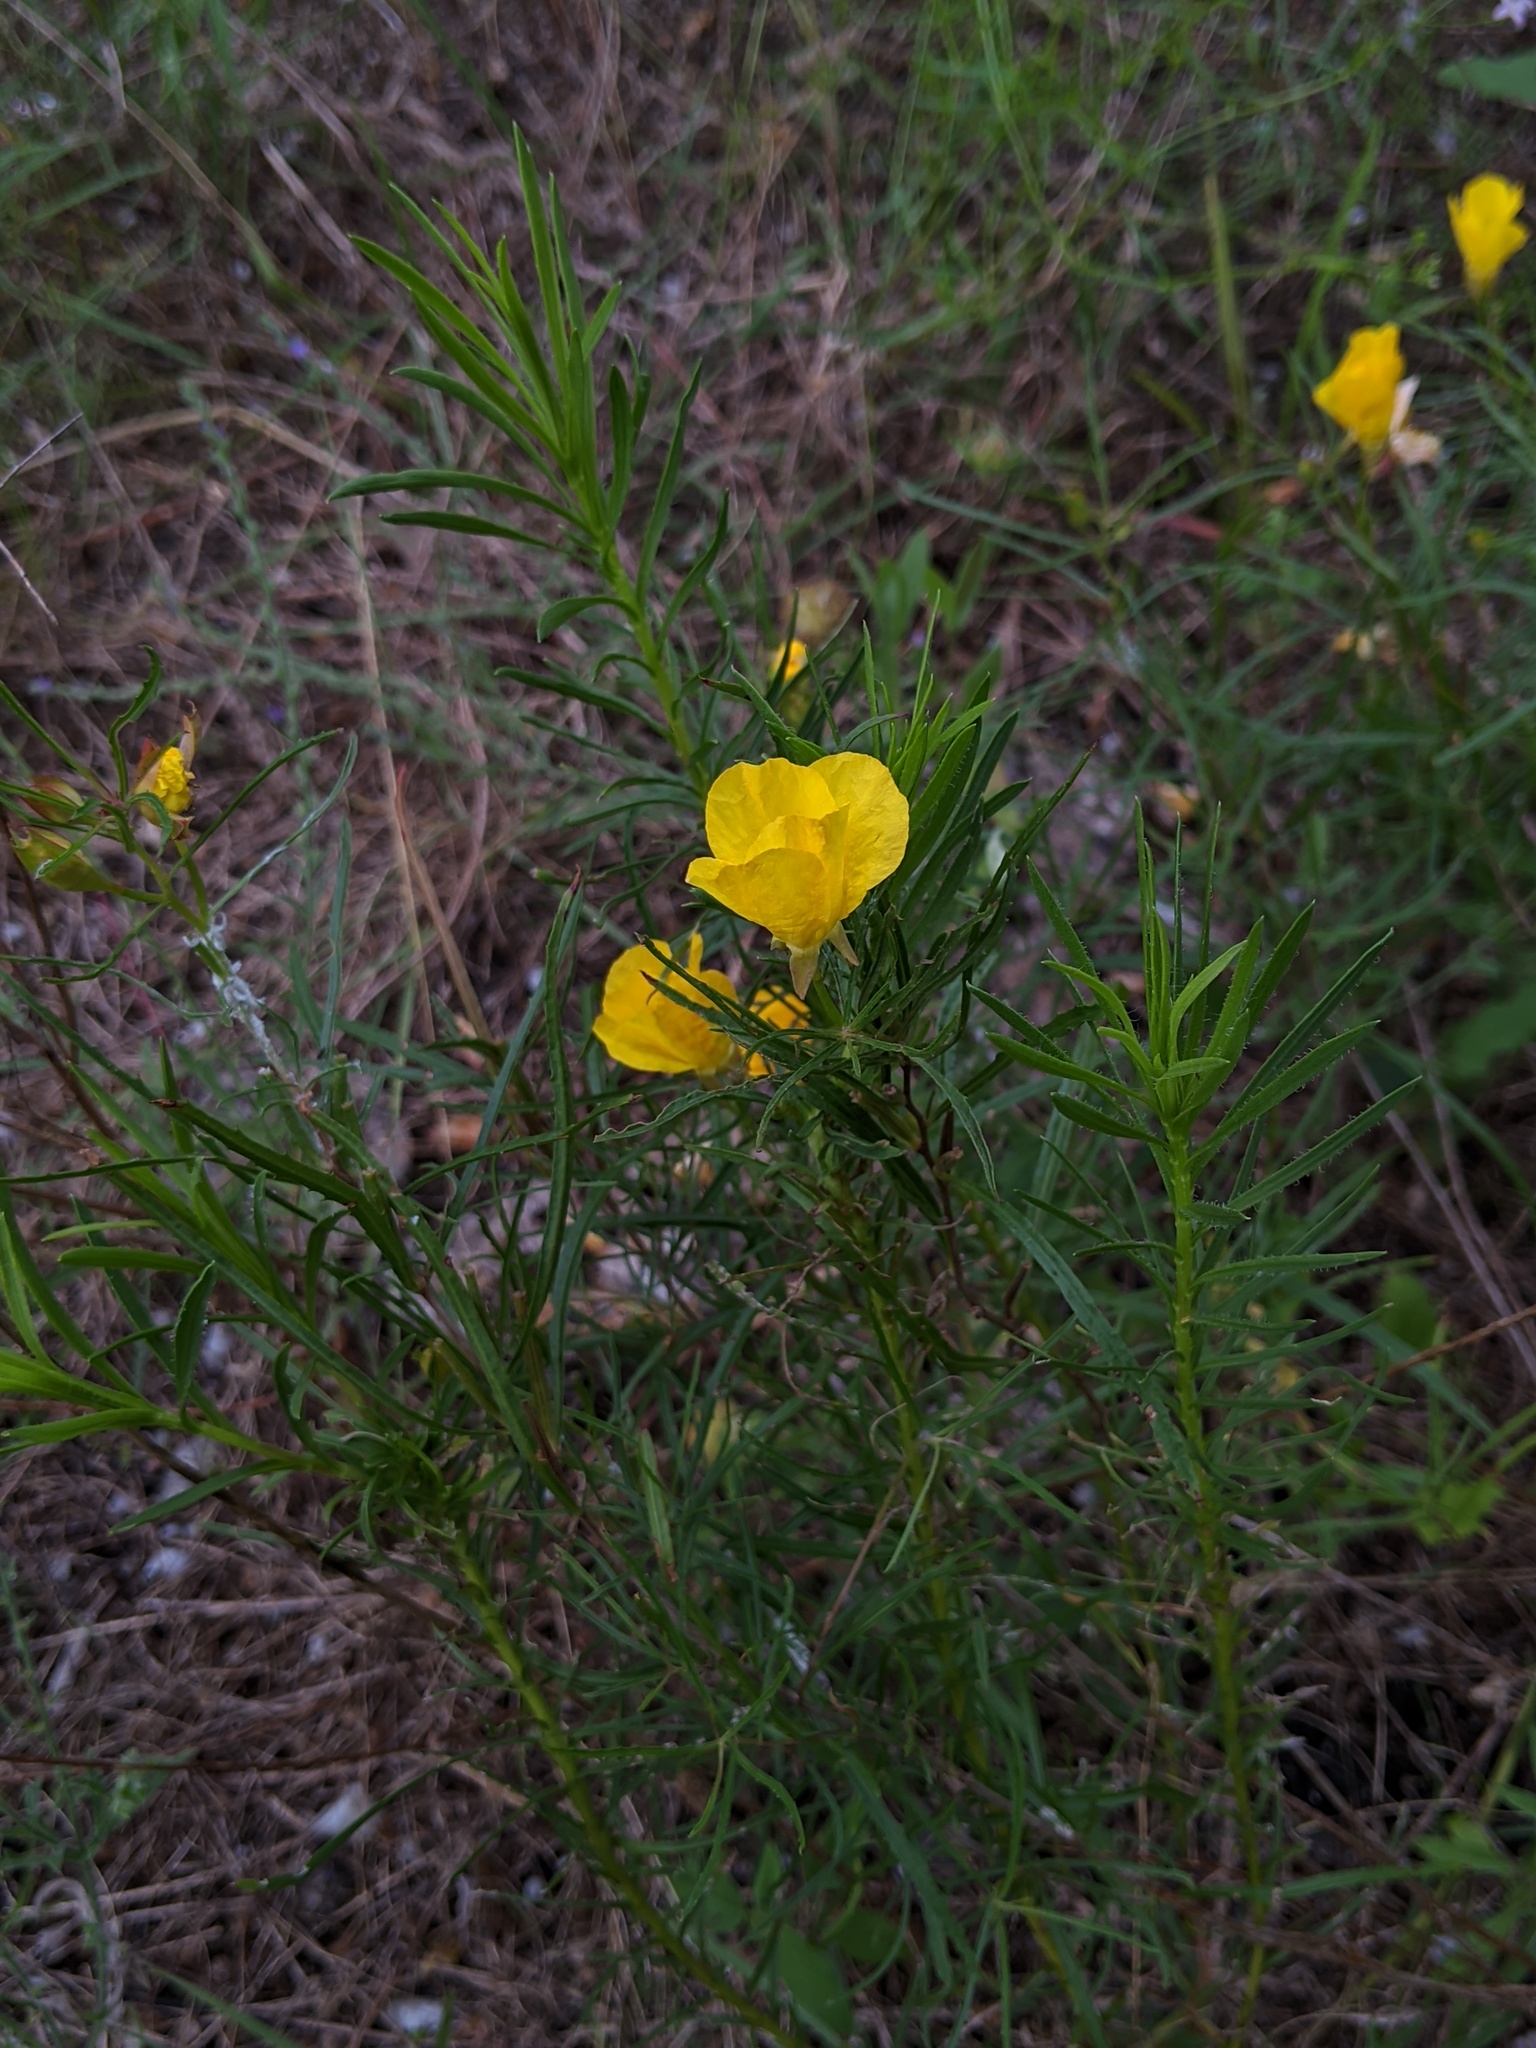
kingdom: Plantae
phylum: Tracheophyta
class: Magnoliopsida
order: Myrtales
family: Onagraceae
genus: Oenothera
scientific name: Oenothera
